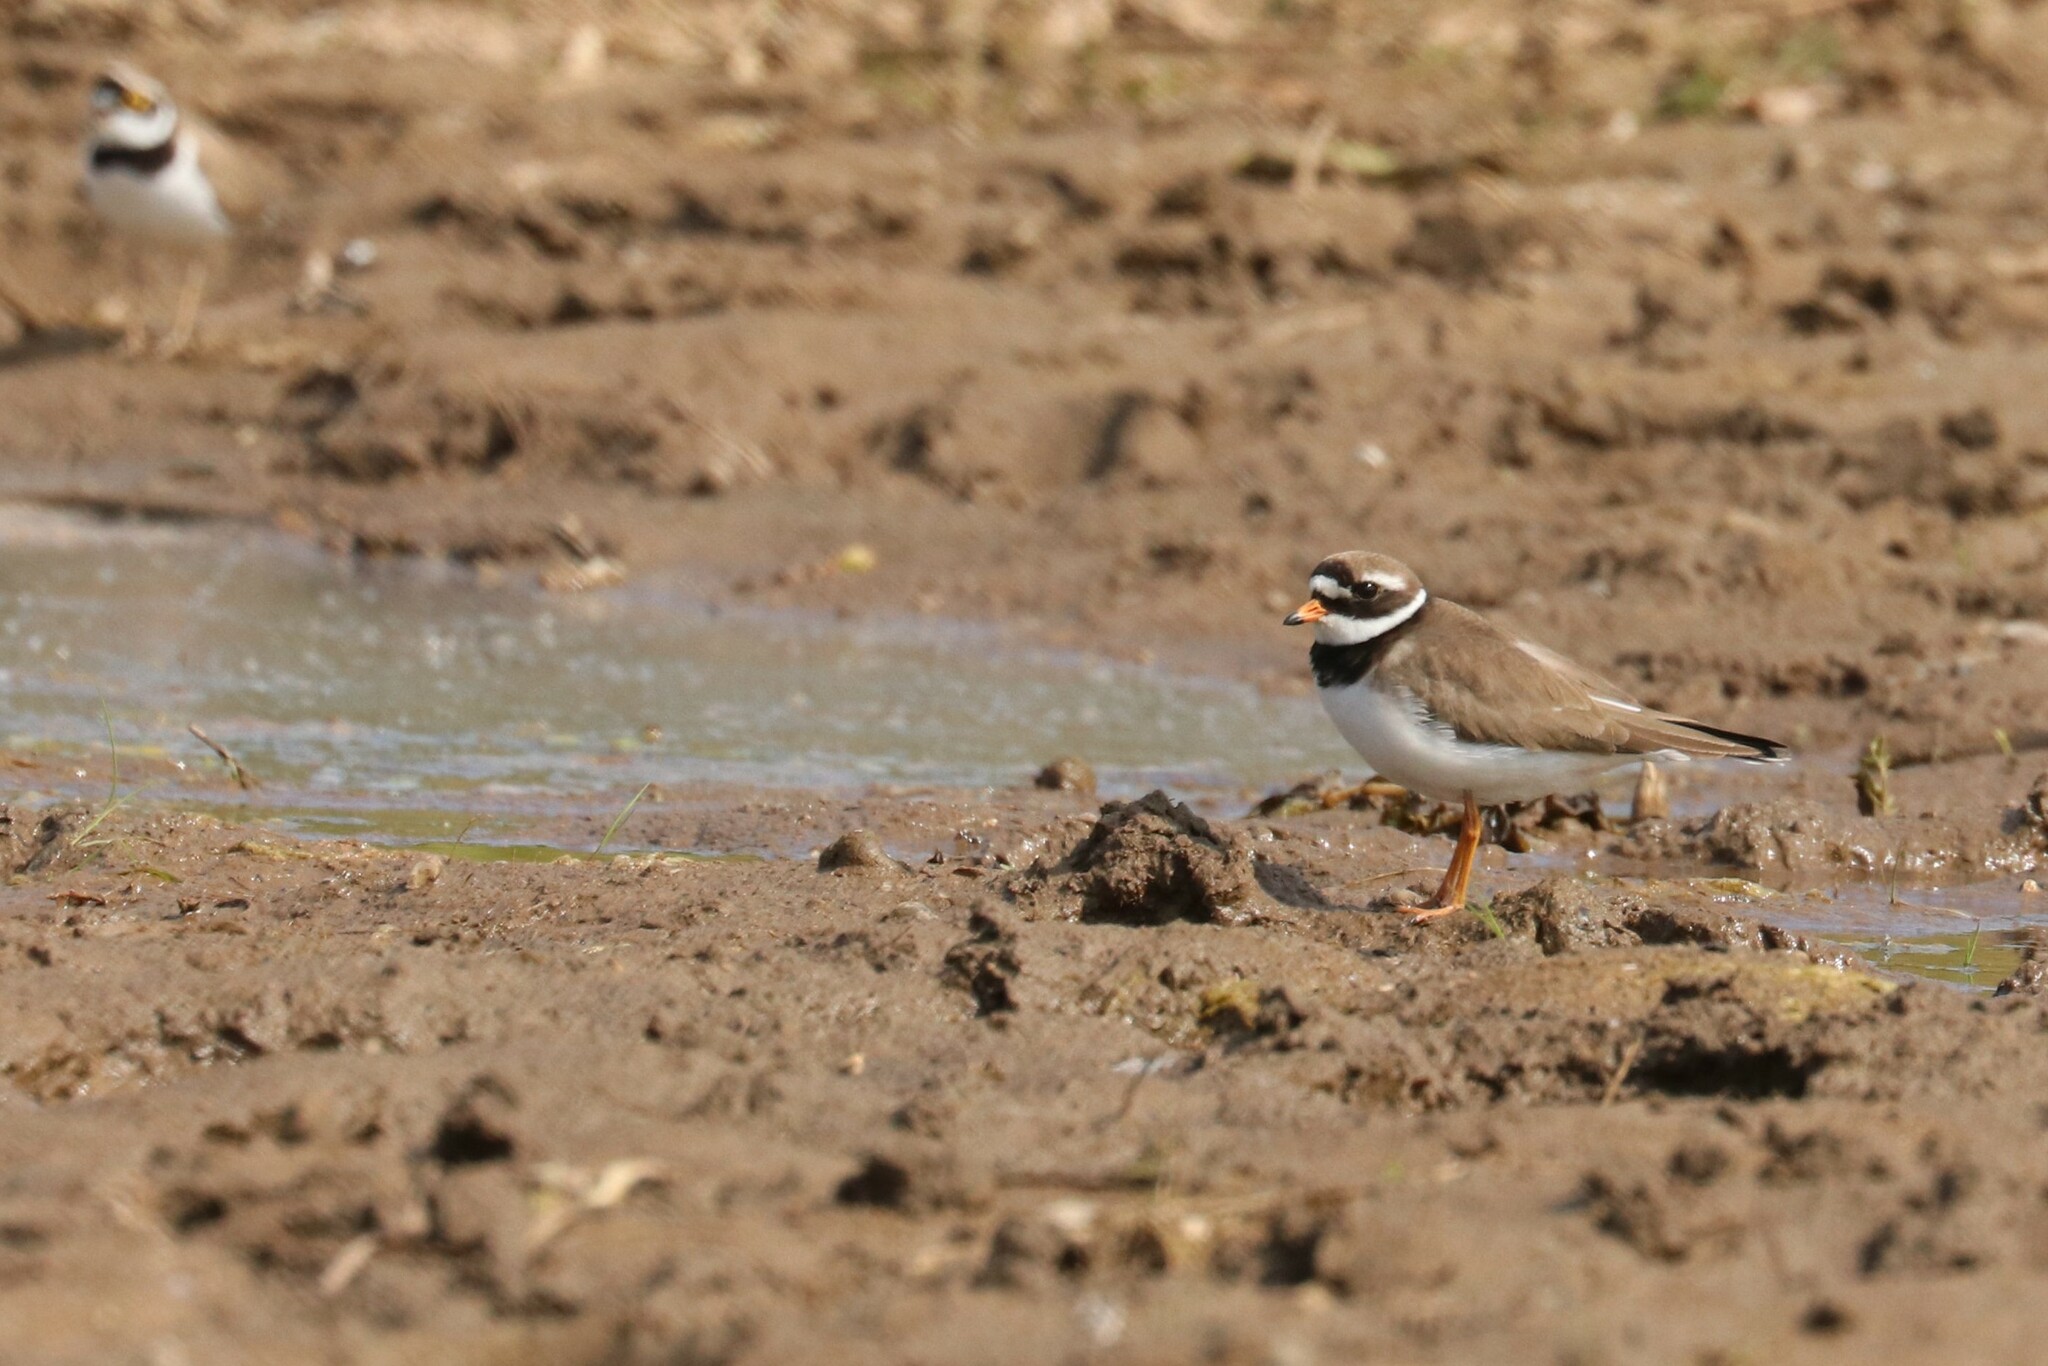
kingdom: Animalia
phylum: Chordata
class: Aves
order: Charadriiformes
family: Charadriidae
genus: Charadrius
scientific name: Charadrius hiaticula
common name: Common ringed plover
